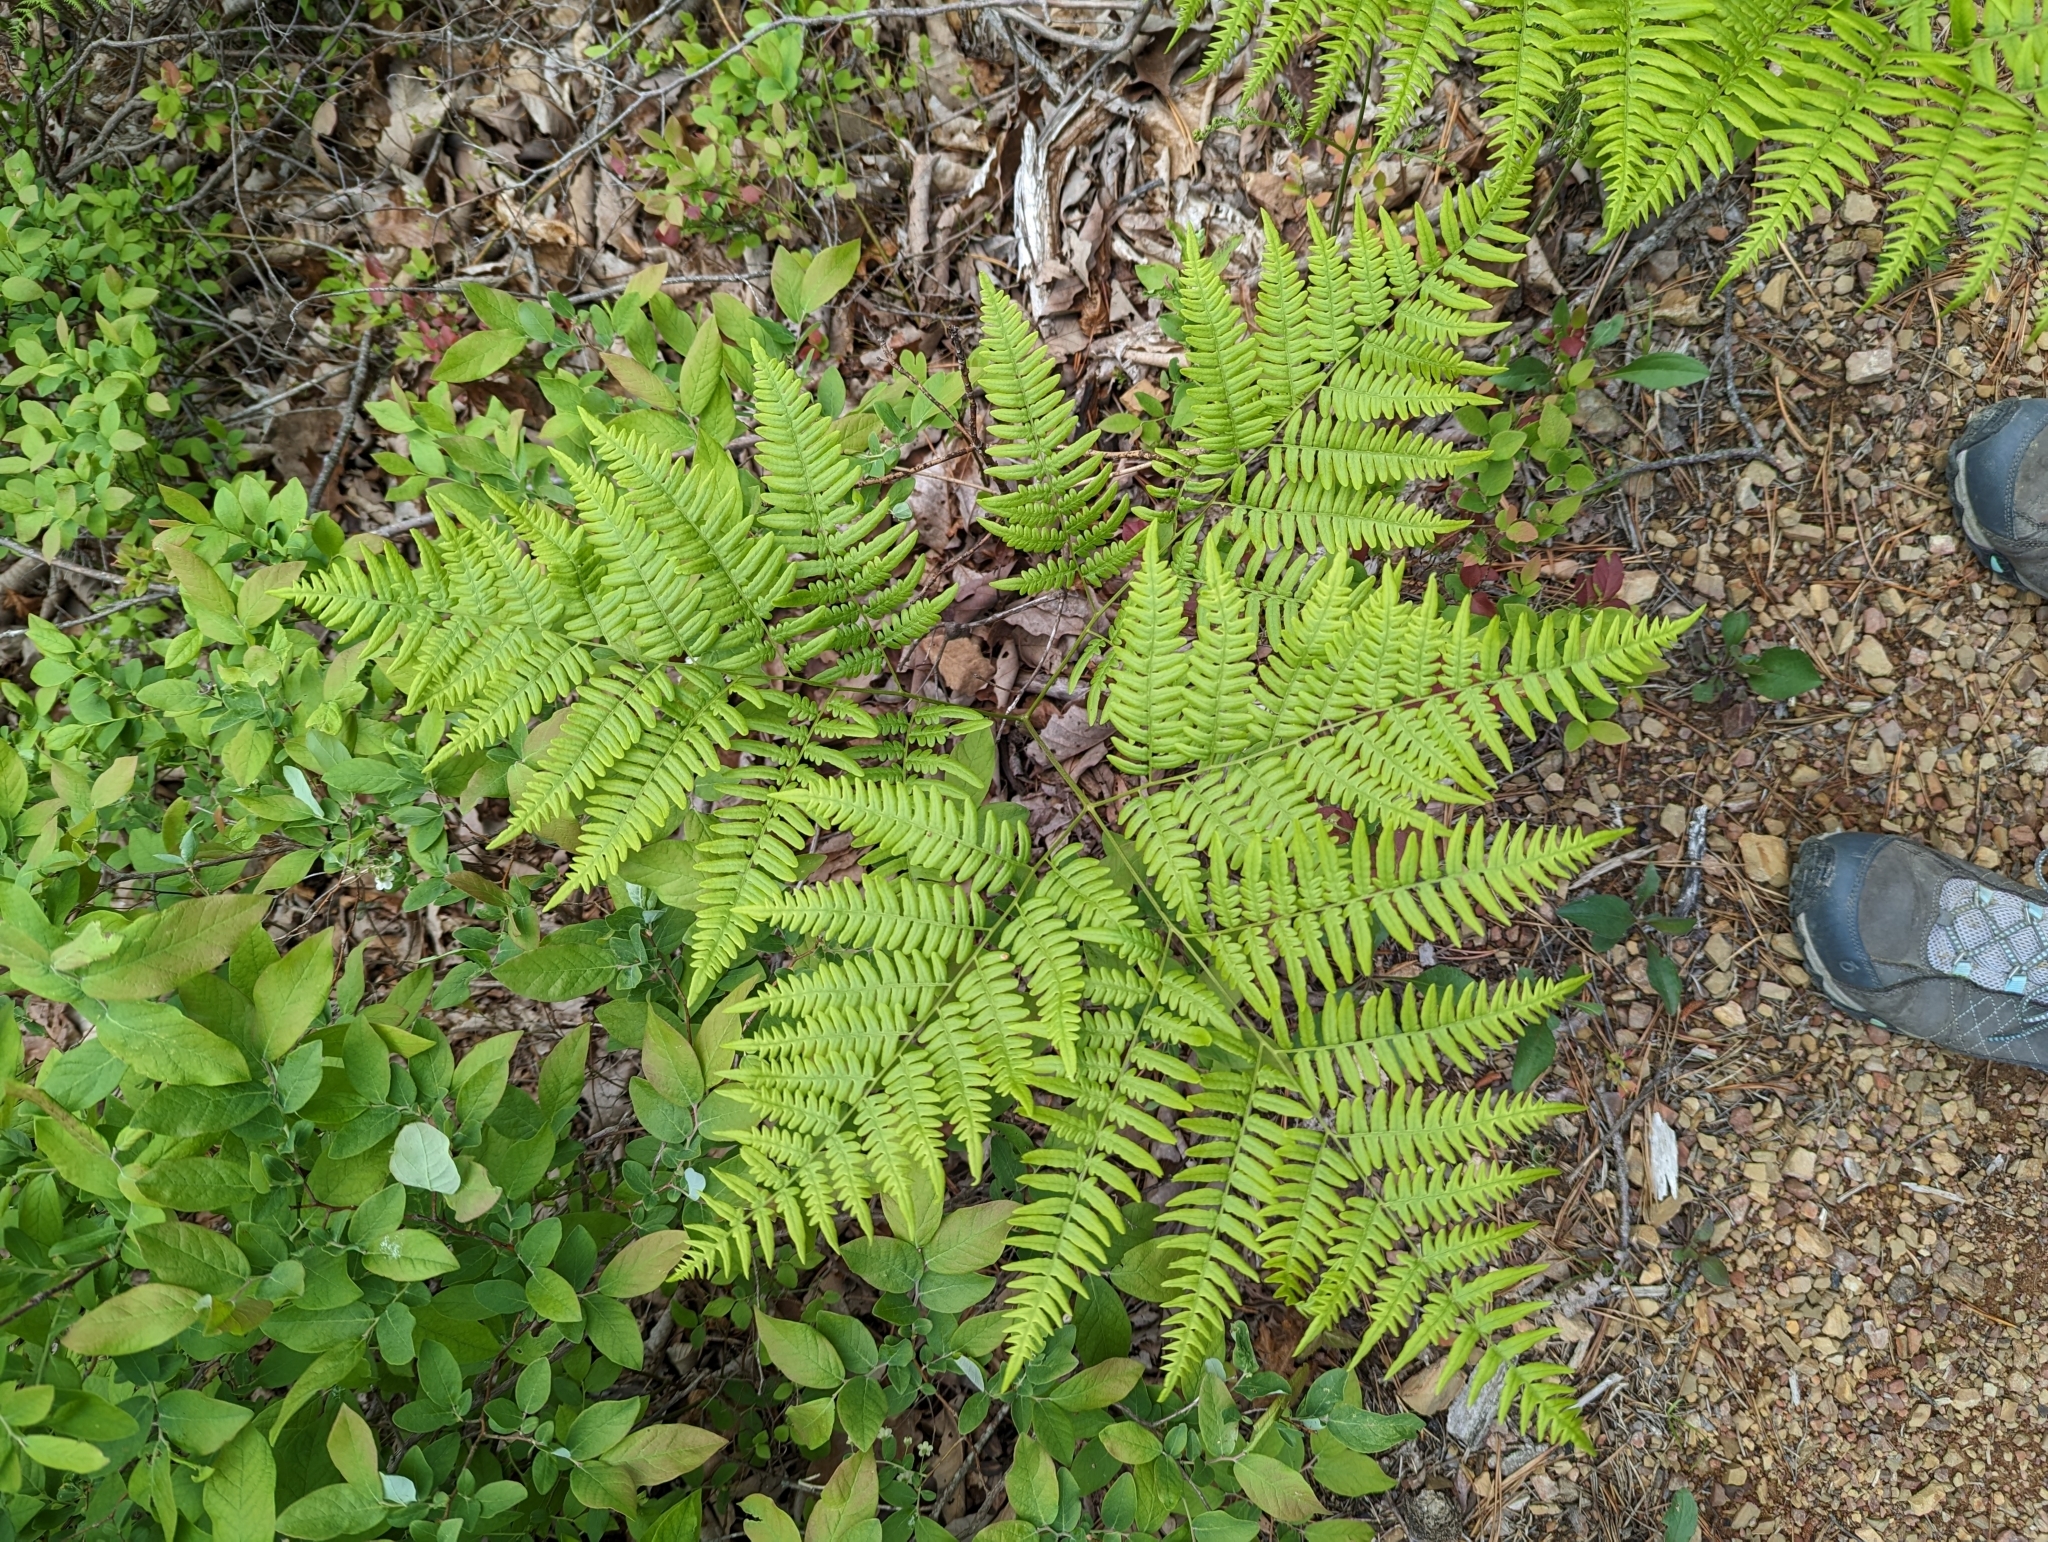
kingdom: Plantae
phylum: Tracheophyta
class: Polypodiopsida
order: Polypodiales
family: Dennstaedtiaceae
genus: Pteridium
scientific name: Pteridium aquilinum
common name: Bracken
